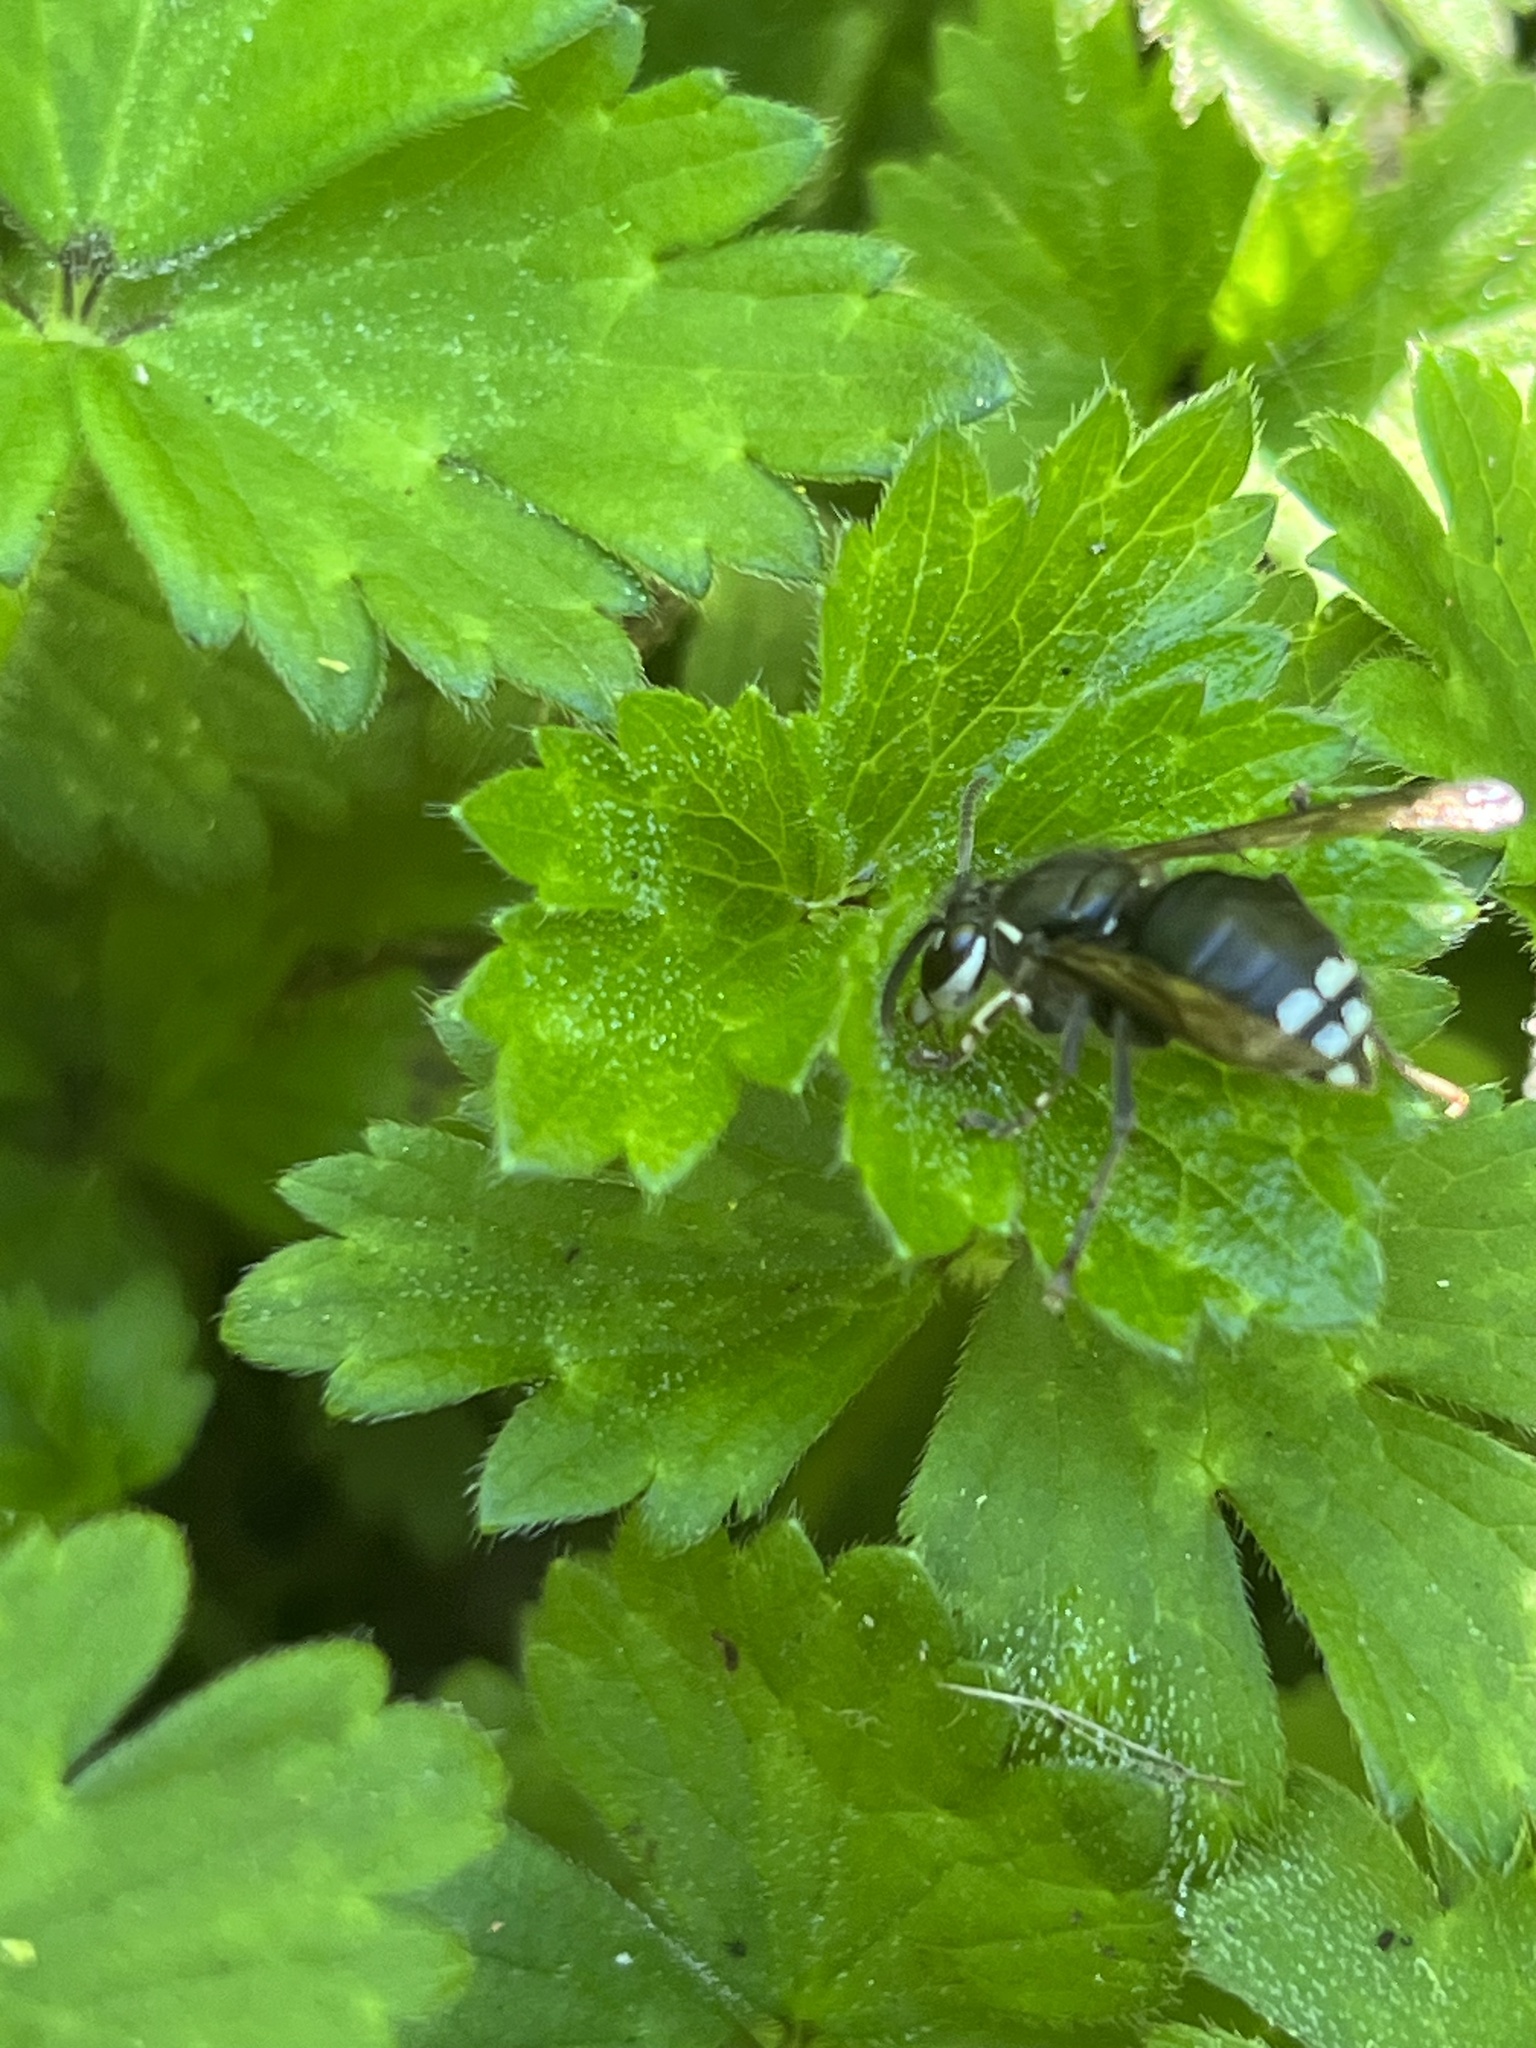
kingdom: Animalia
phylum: Arthropoda
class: Insecta
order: Hymenoptera
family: Vespidae
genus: Dolichovespula
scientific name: Dolichovespula maculata
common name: Bald-faced hornet
